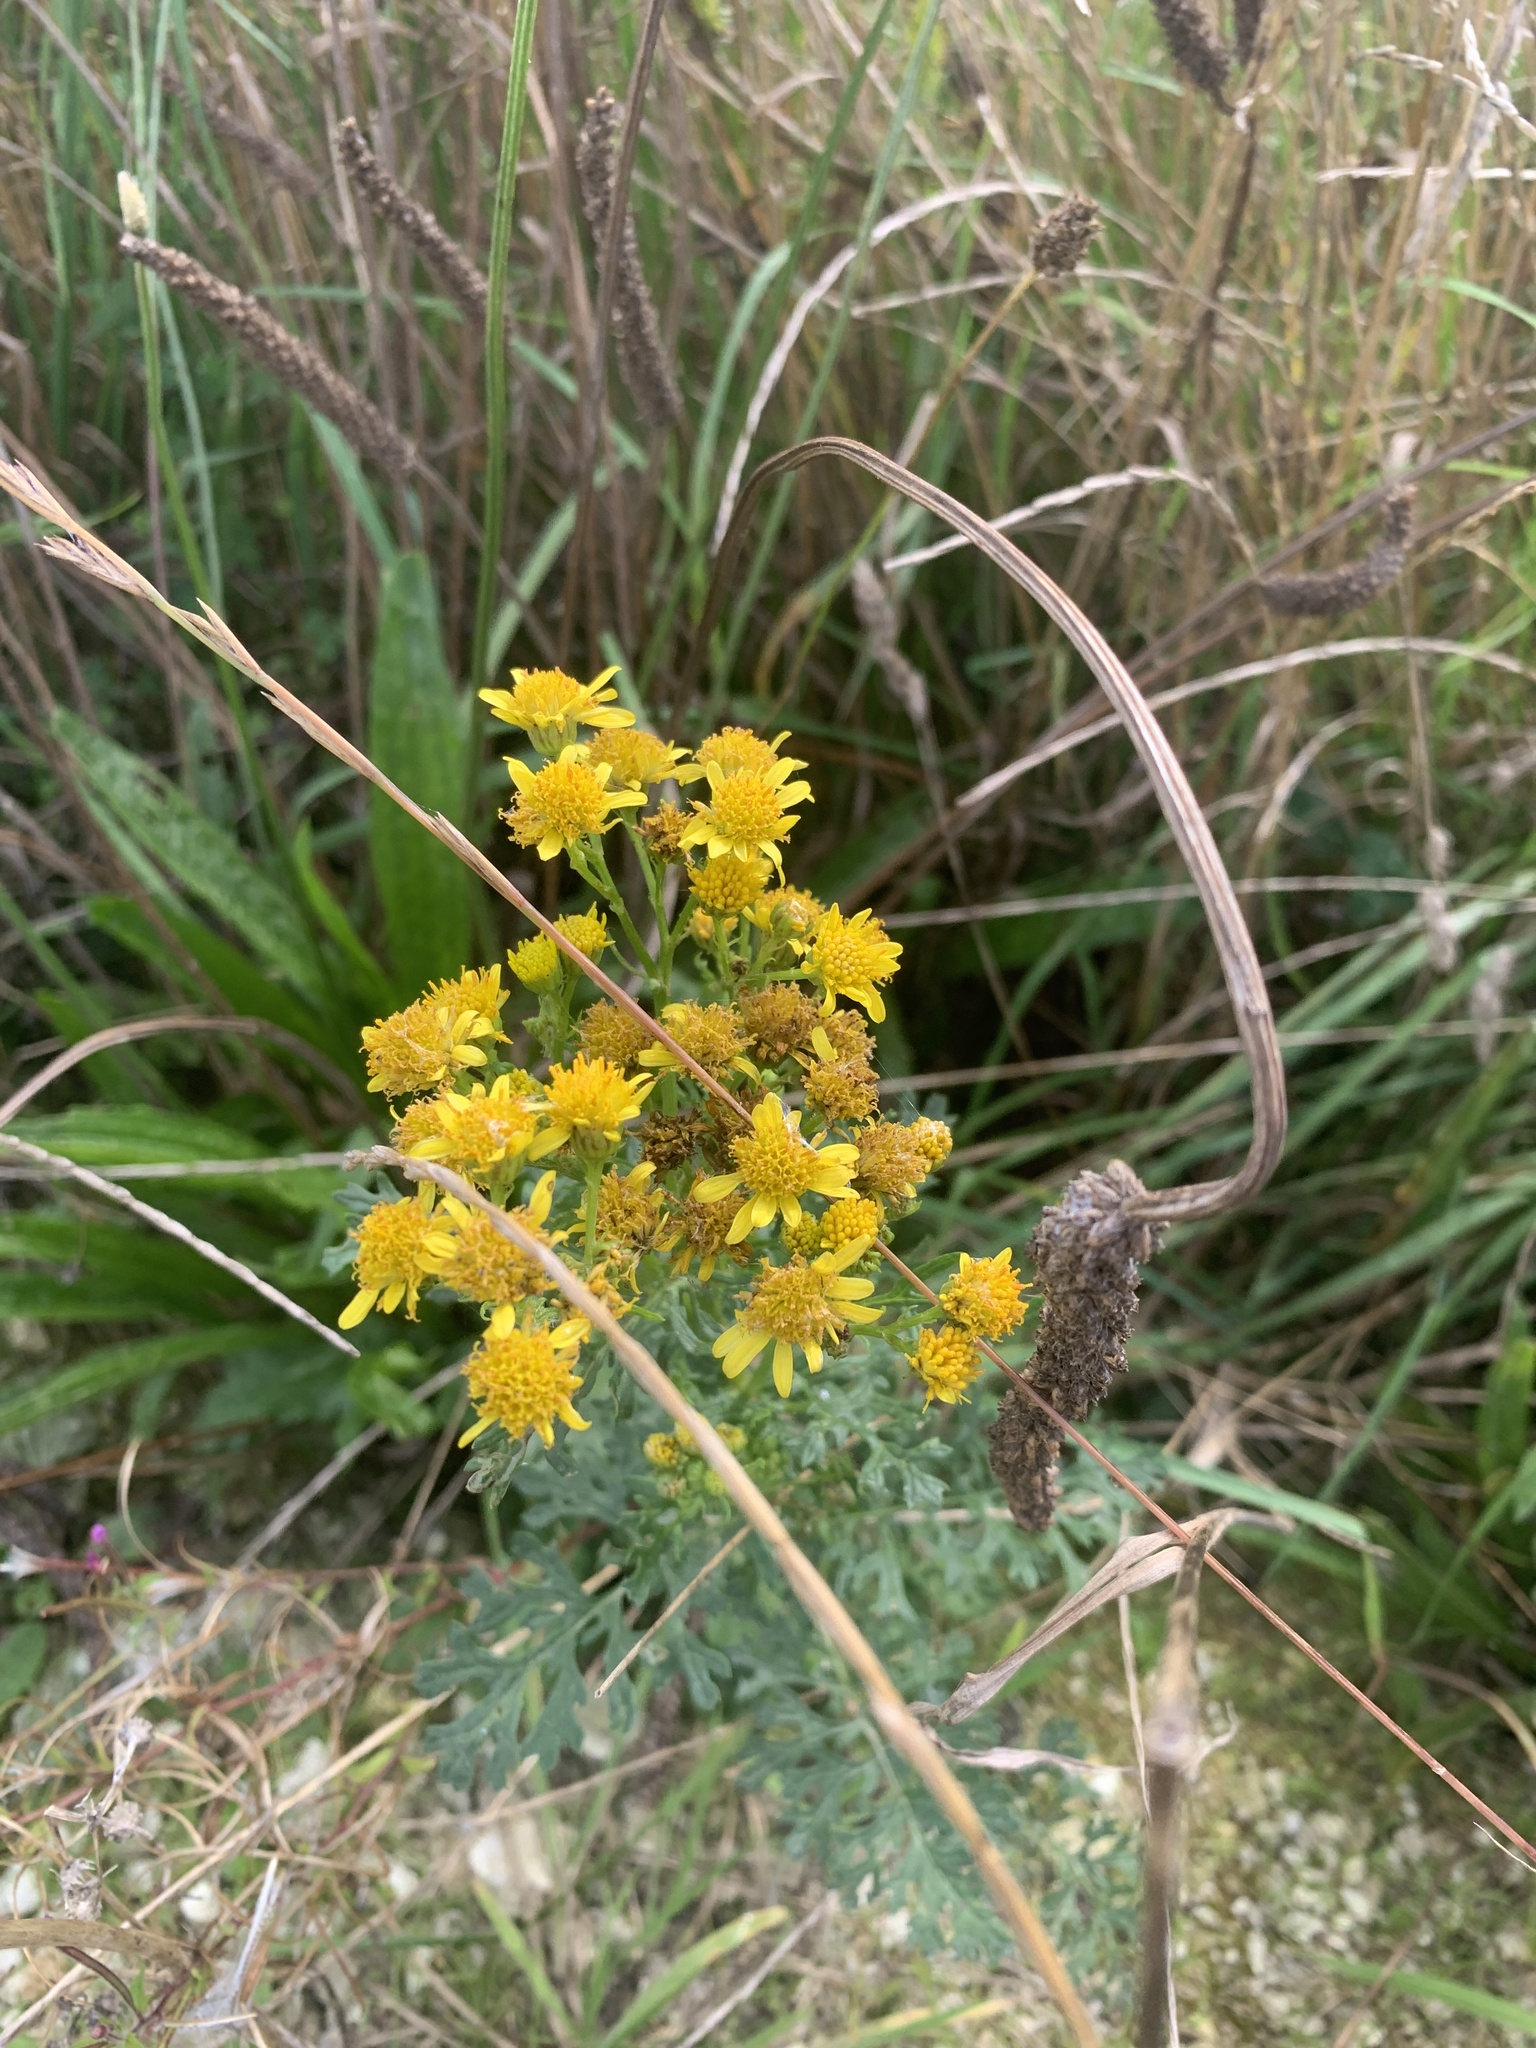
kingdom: Plantae
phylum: Tracheophyta
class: Magnoliopsida
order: Asterales
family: Asteraceae
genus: Jacobaea
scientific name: Jacobaea vulgaris
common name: Stinking willie
